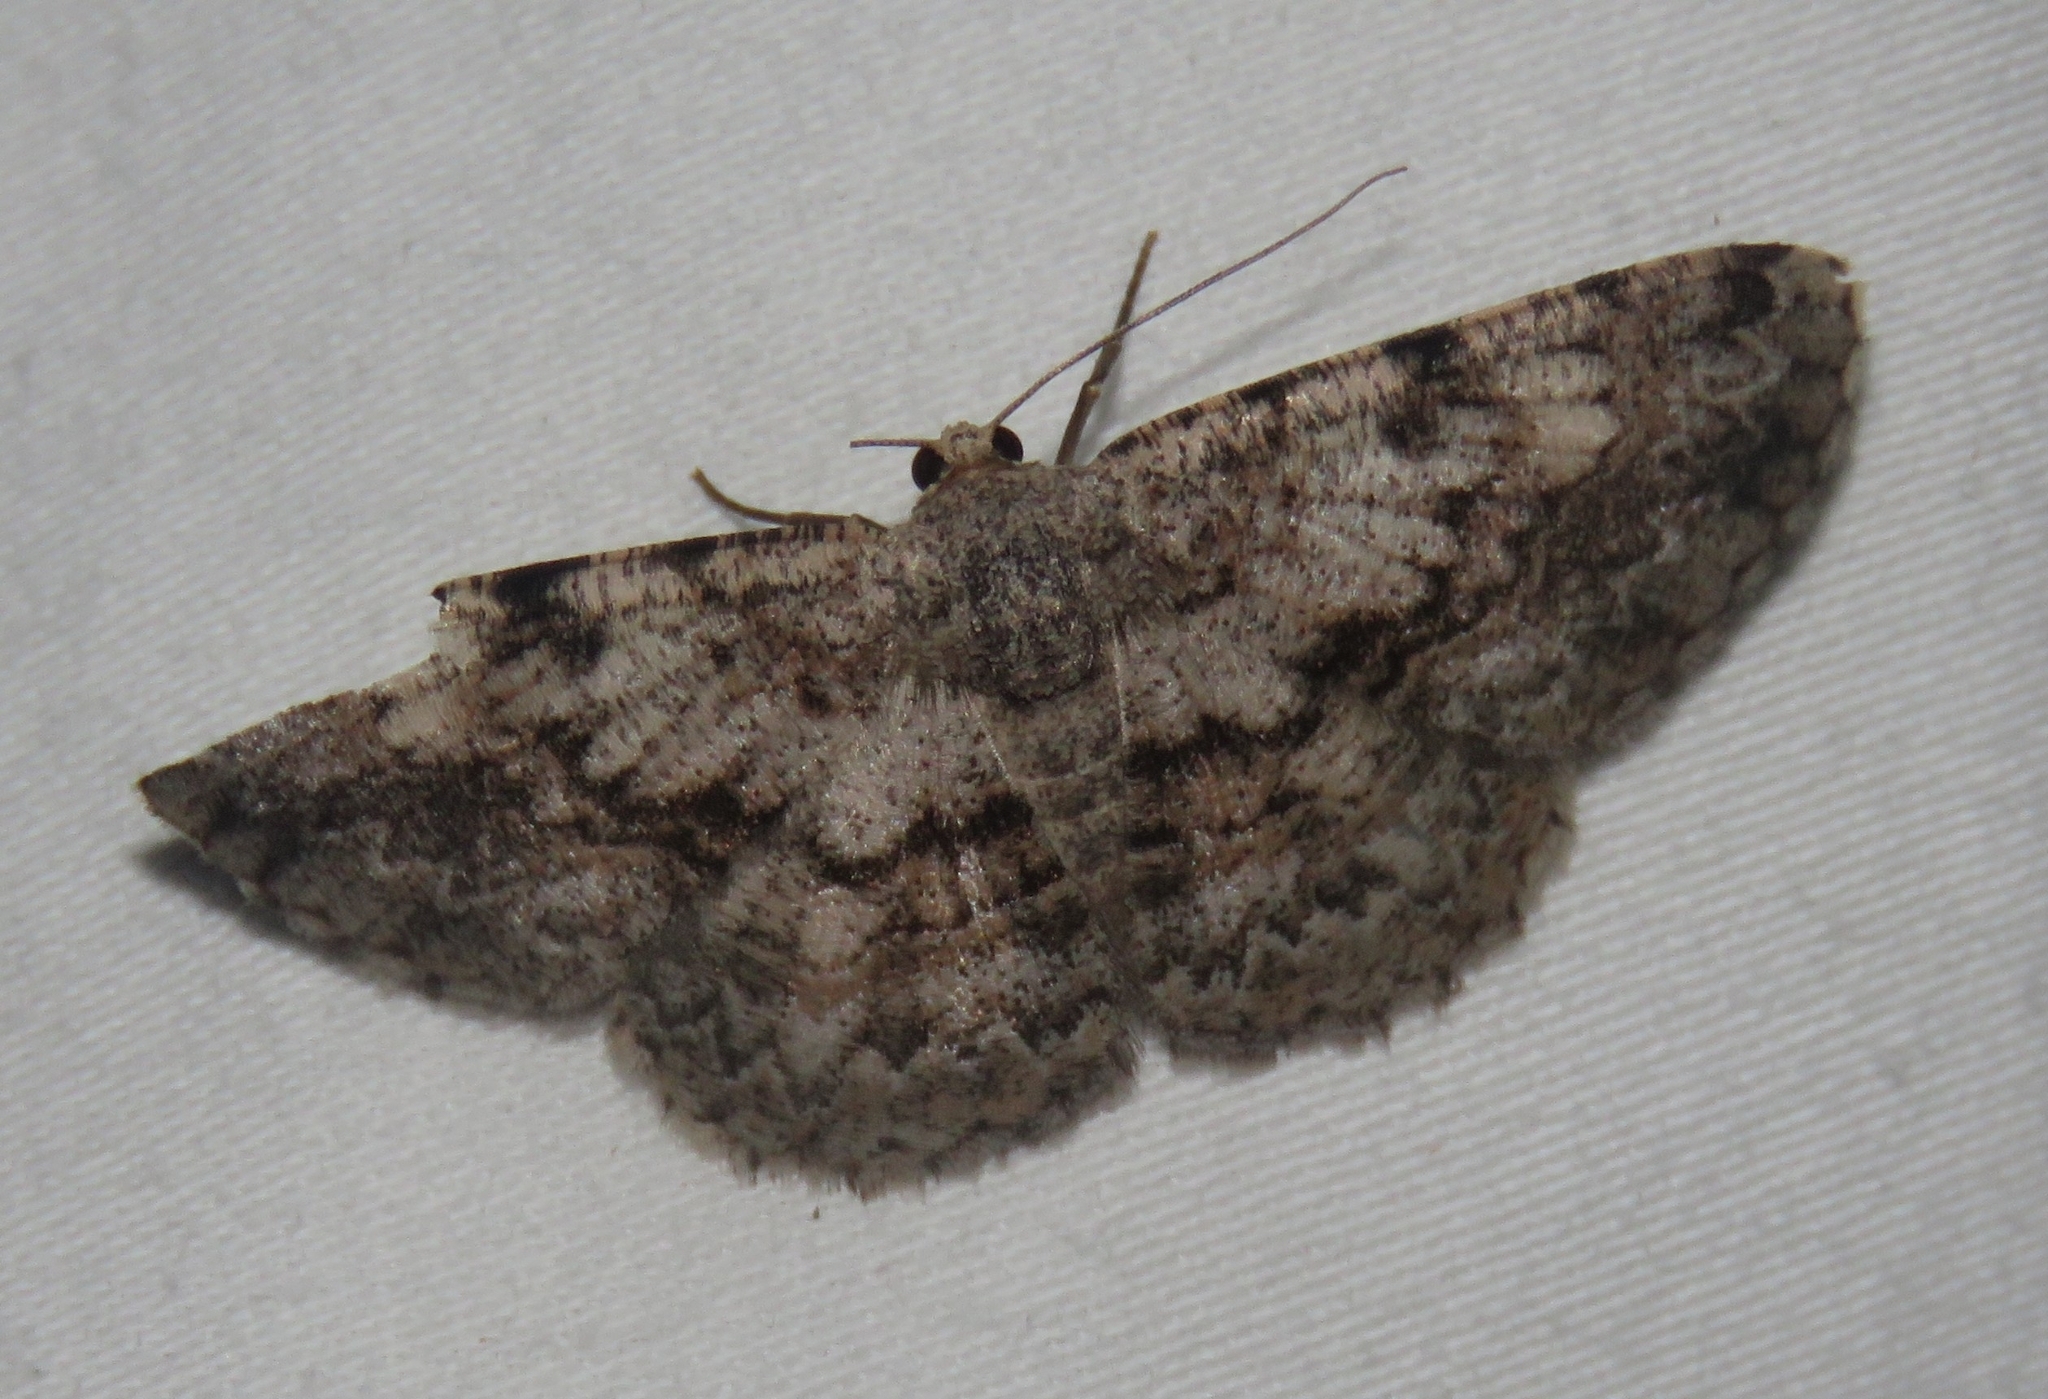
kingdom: Animalia
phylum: Arthropoda
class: Insecta
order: Lepidoptera
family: Geometridae
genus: Ectropidia
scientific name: Ectropidia shoreae
